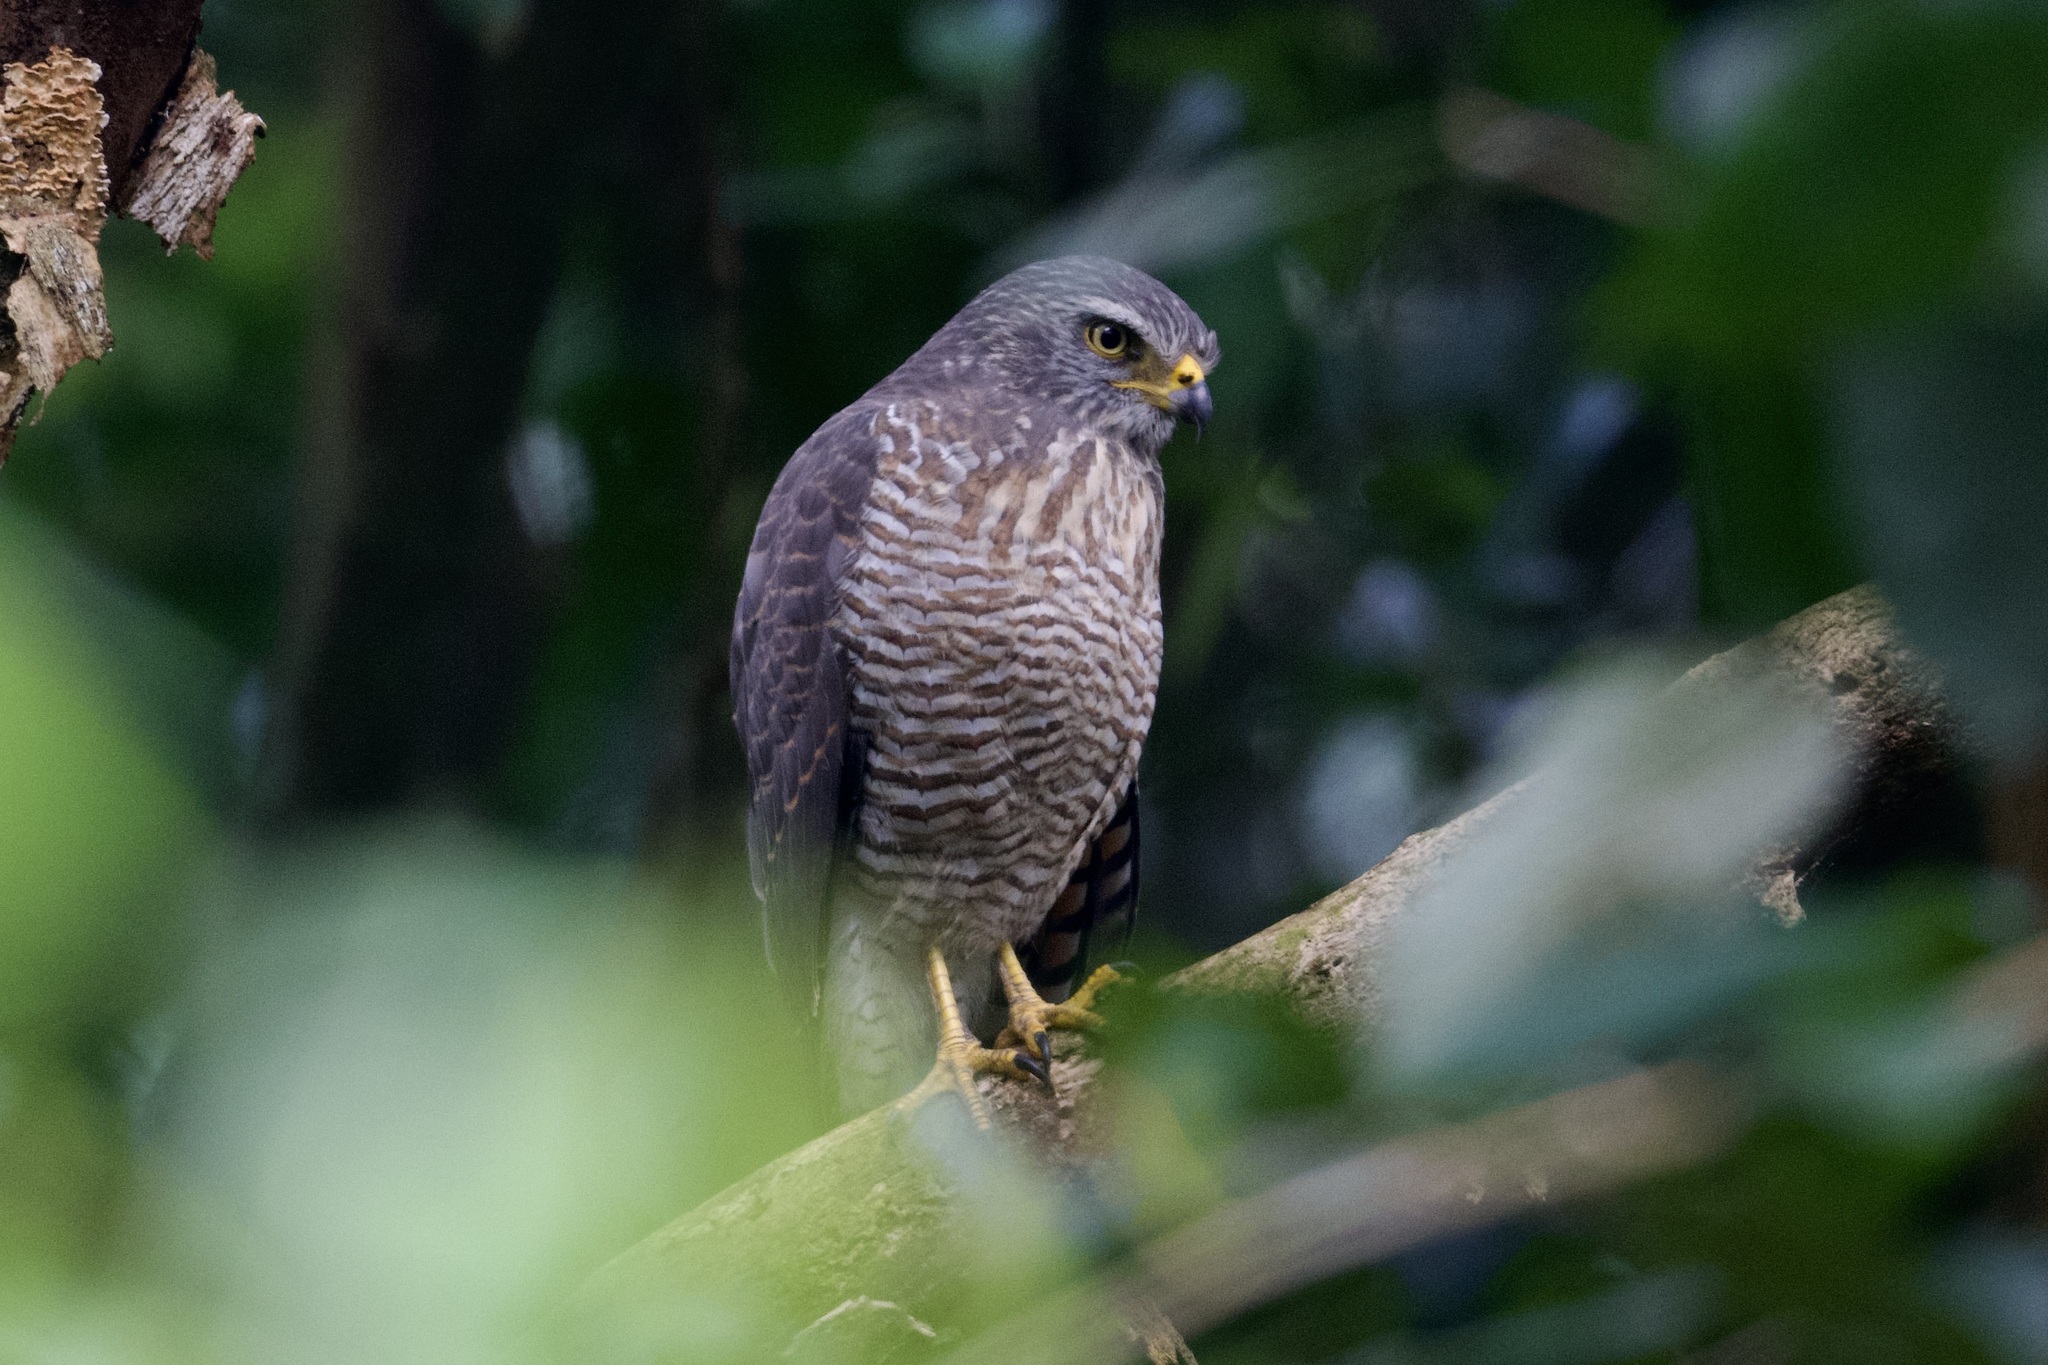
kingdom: Animalia
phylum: Chordata
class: Aves
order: Accipitriformes
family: Accipitridae
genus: Rupornis
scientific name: Rupornis magnirostris
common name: Roadside hawk
